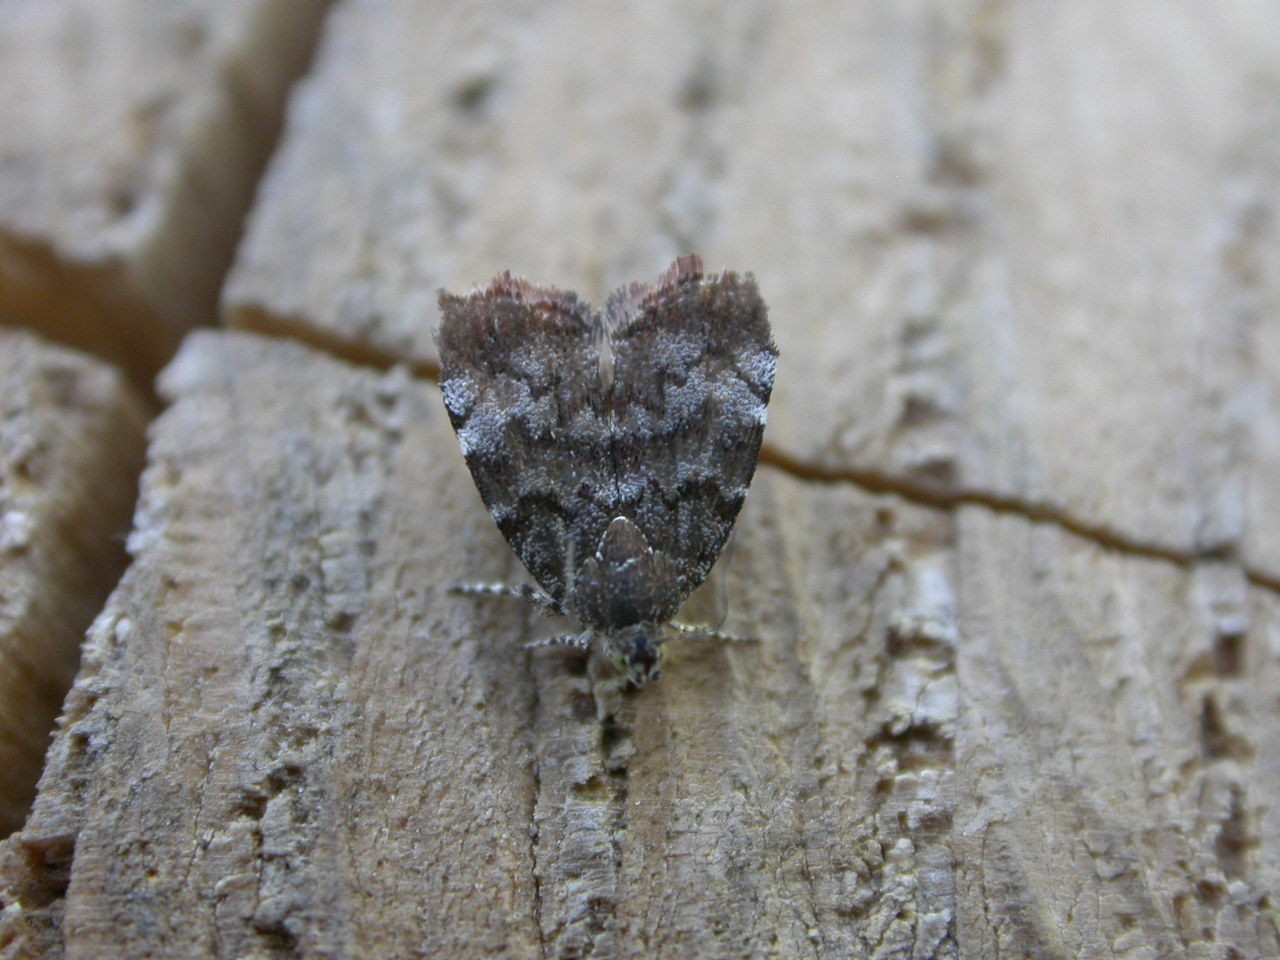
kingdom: Animalia
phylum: Arthropoda
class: Insecta
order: Lepidoptera
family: Choreutidae
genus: Choreutis
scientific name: Choreutis pariana
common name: Apple leaf skeletoniser
